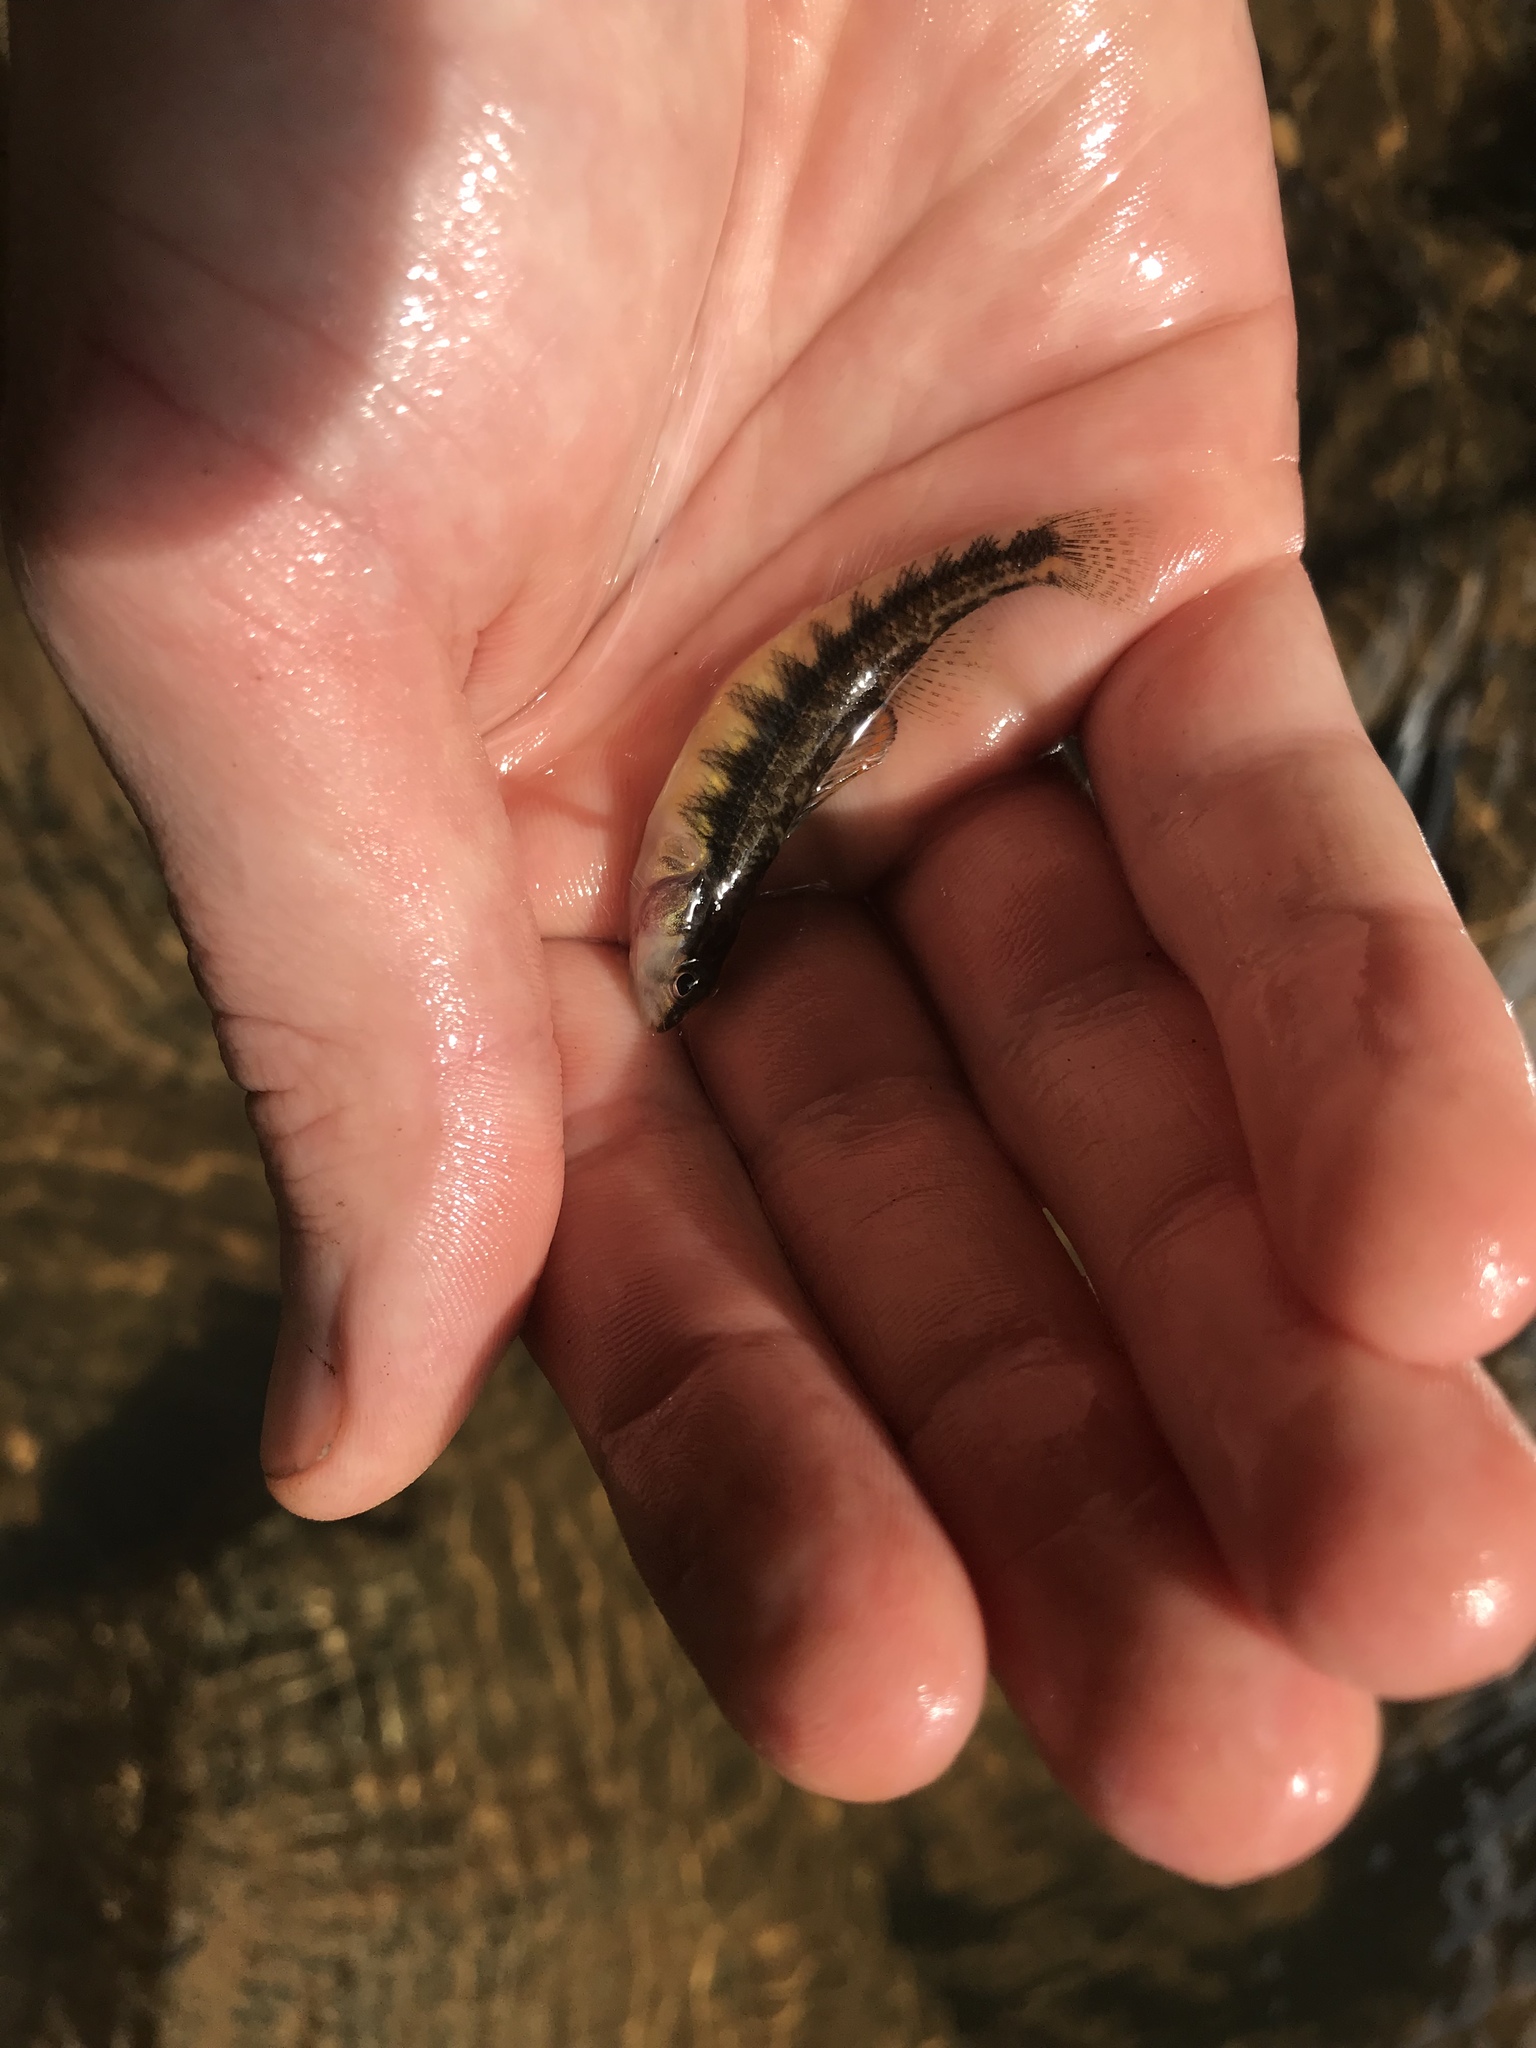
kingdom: Animalia
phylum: Chordata
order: Perciformes
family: Percidae
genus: Percina
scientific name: Percina roanoka
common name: Roanoke darter
